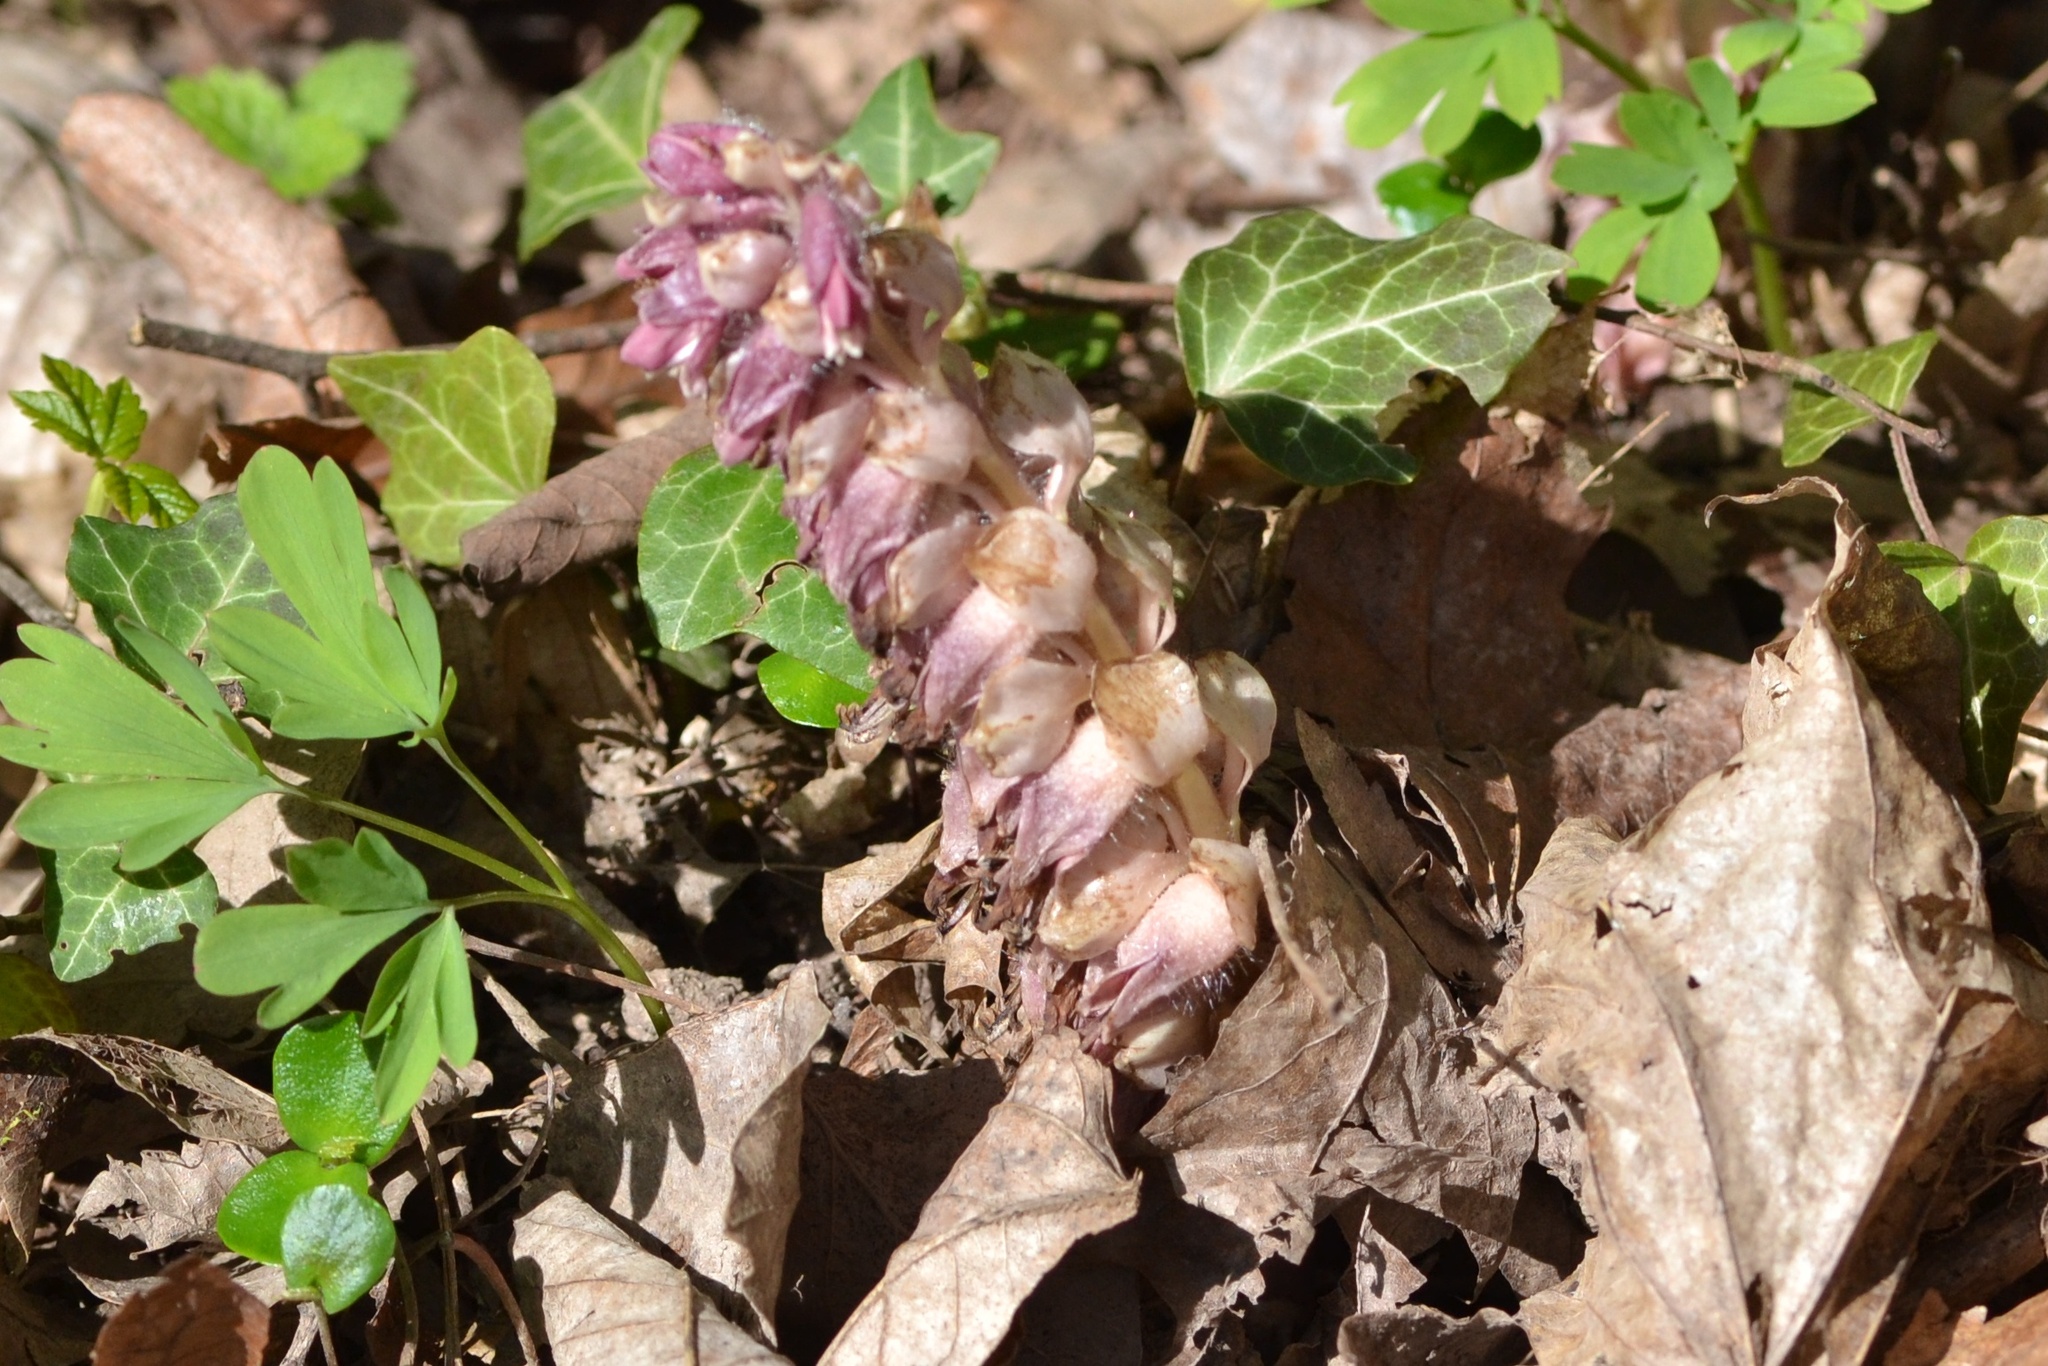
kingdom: Plantae
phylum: Tracheophyta
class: Magnoliopsida
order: Lamiales
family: Orobanchaceae
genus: Lathraea
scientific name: Lathraea squamaria
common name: Toothwort
